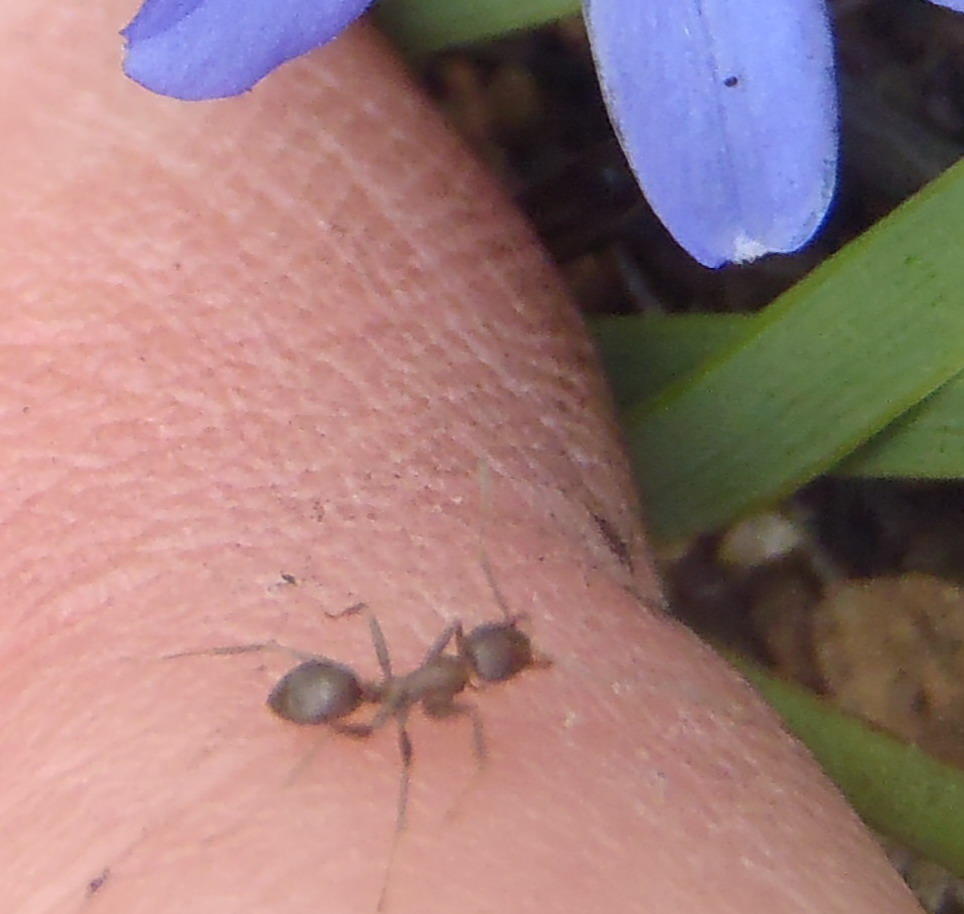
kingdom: Animalia
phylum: Arthropoda
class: Insecta
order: Hymenoptera
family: Formicidae
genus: Anoplolepis
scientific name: Anoplolepis rufescens
